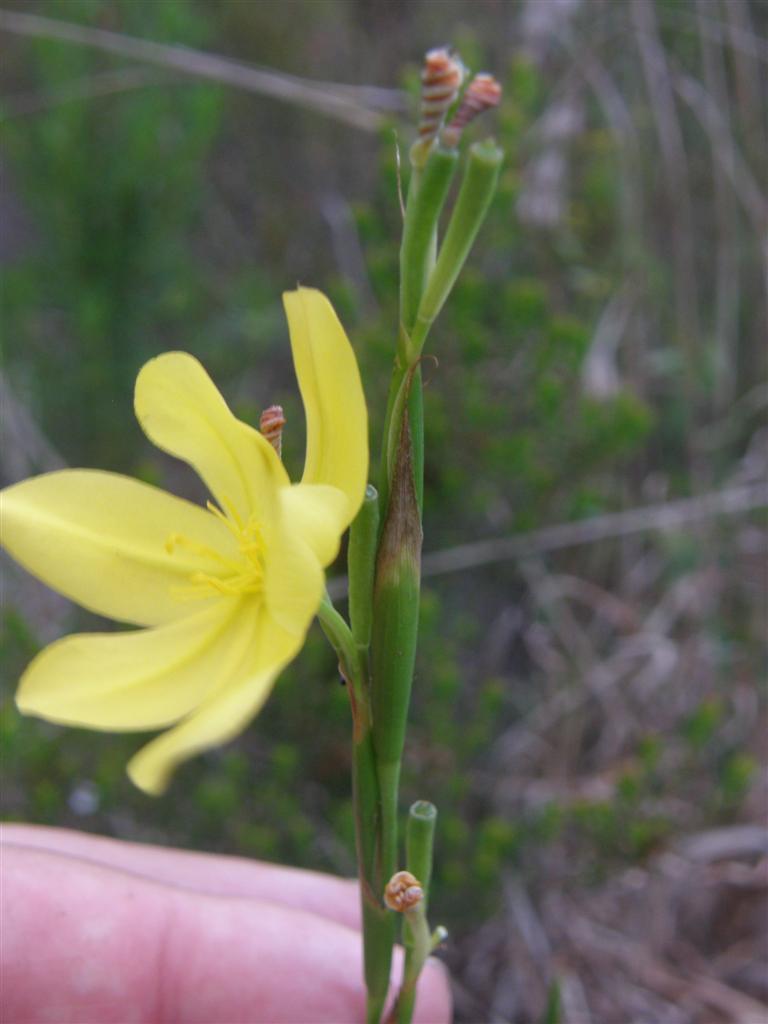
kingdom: Plantae
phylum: Tracheophyta
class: Liliopsida
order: Asparagales
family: Iridaceae
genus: Moraea
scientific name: Moraea lewisiae
